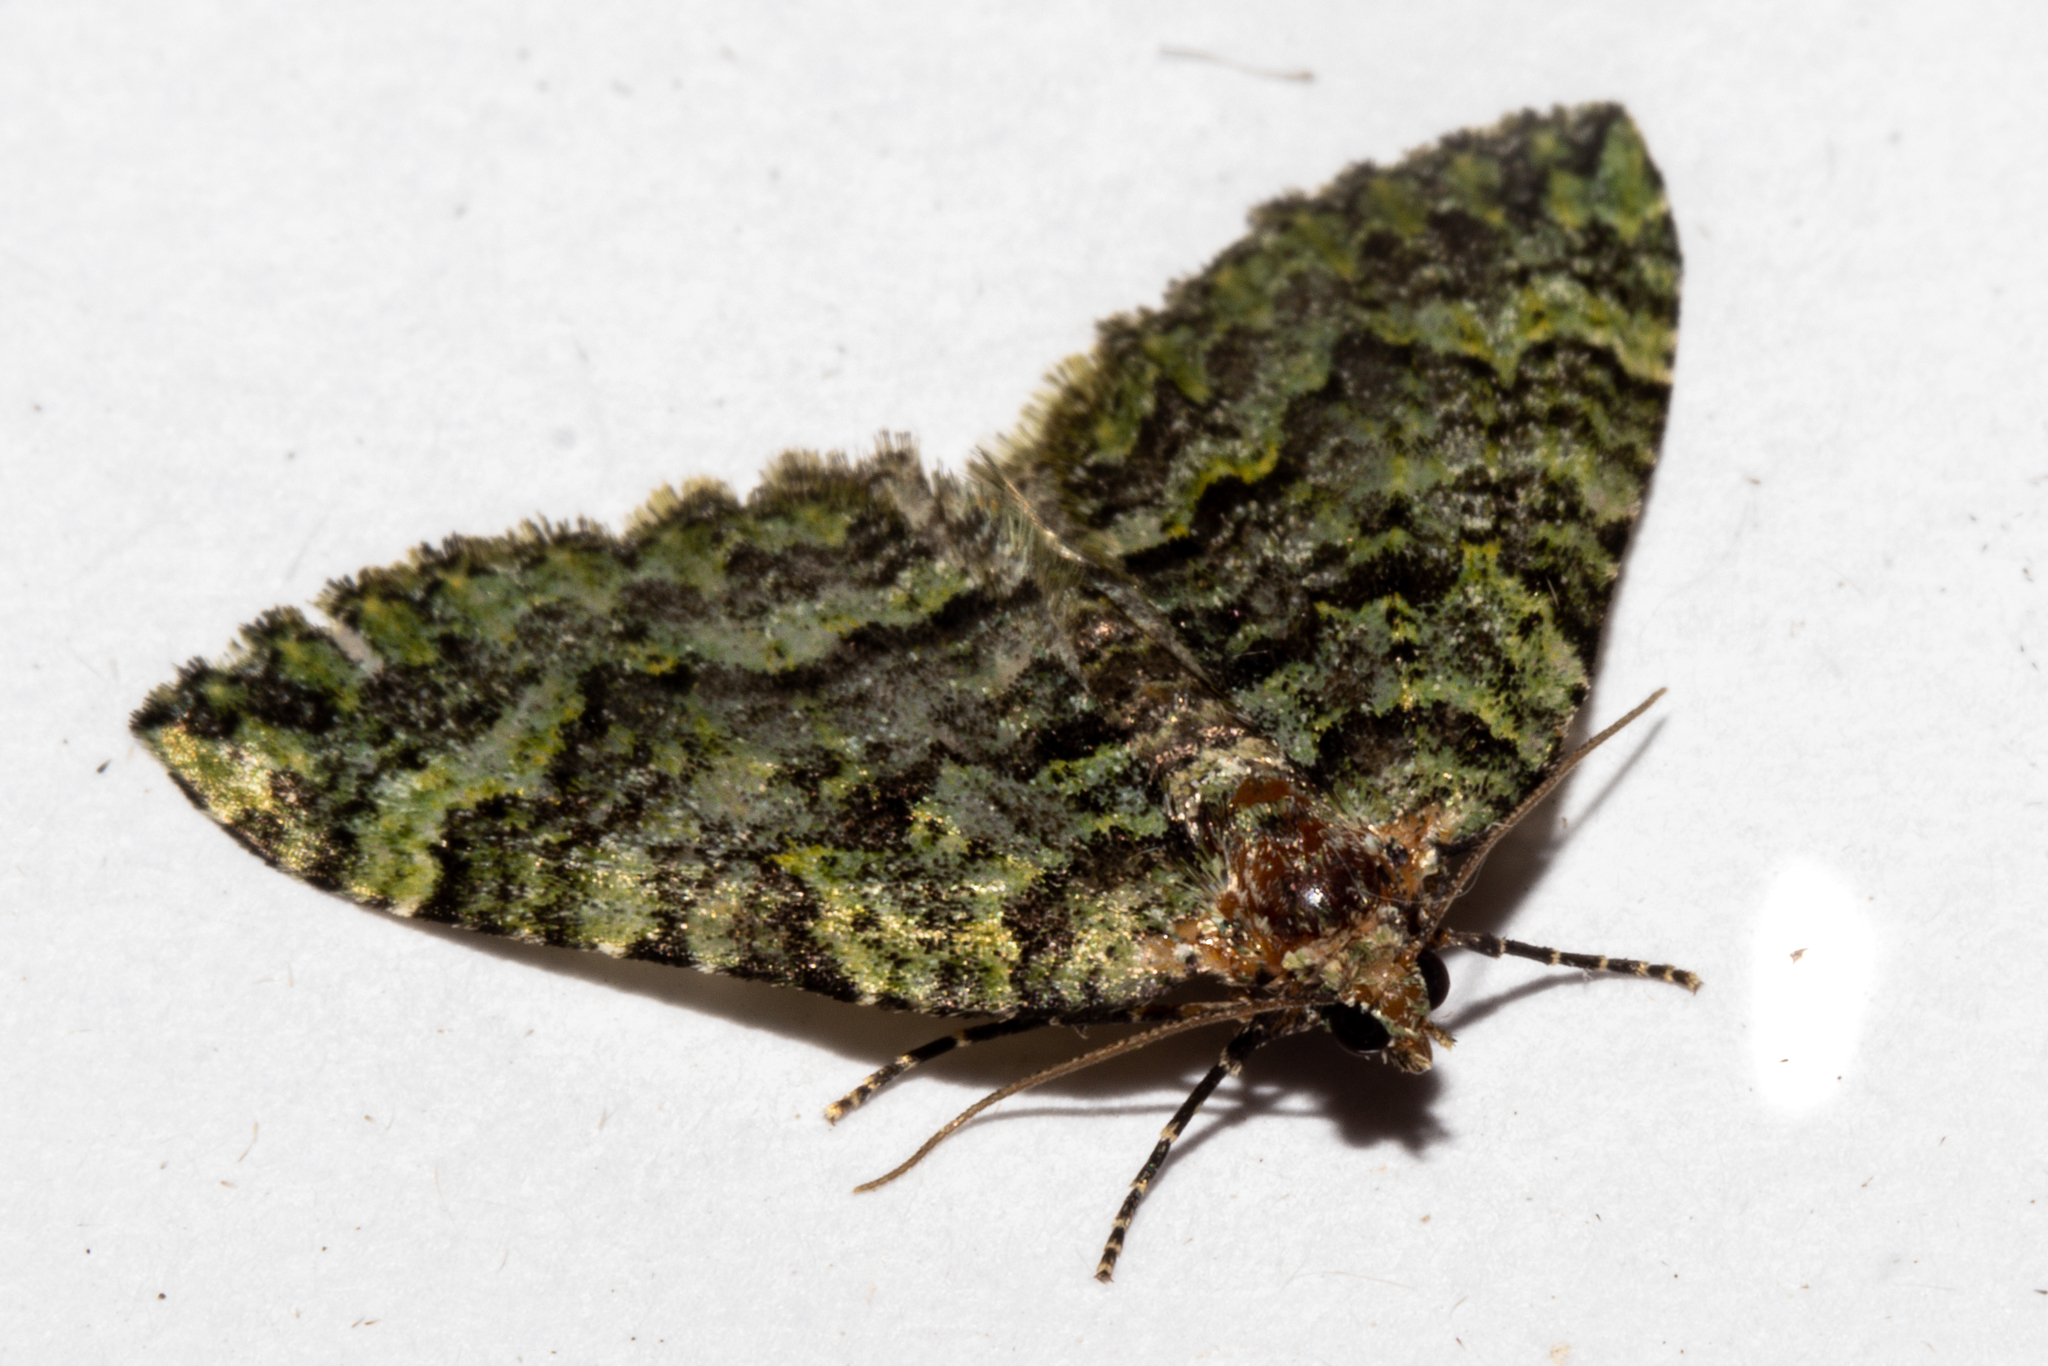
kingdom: Animalia
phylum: Arthropoda
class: Insecta
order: Lepidoptera
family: Geometridae
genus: Austrocidaria
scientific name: Austrocidaria callichlora
